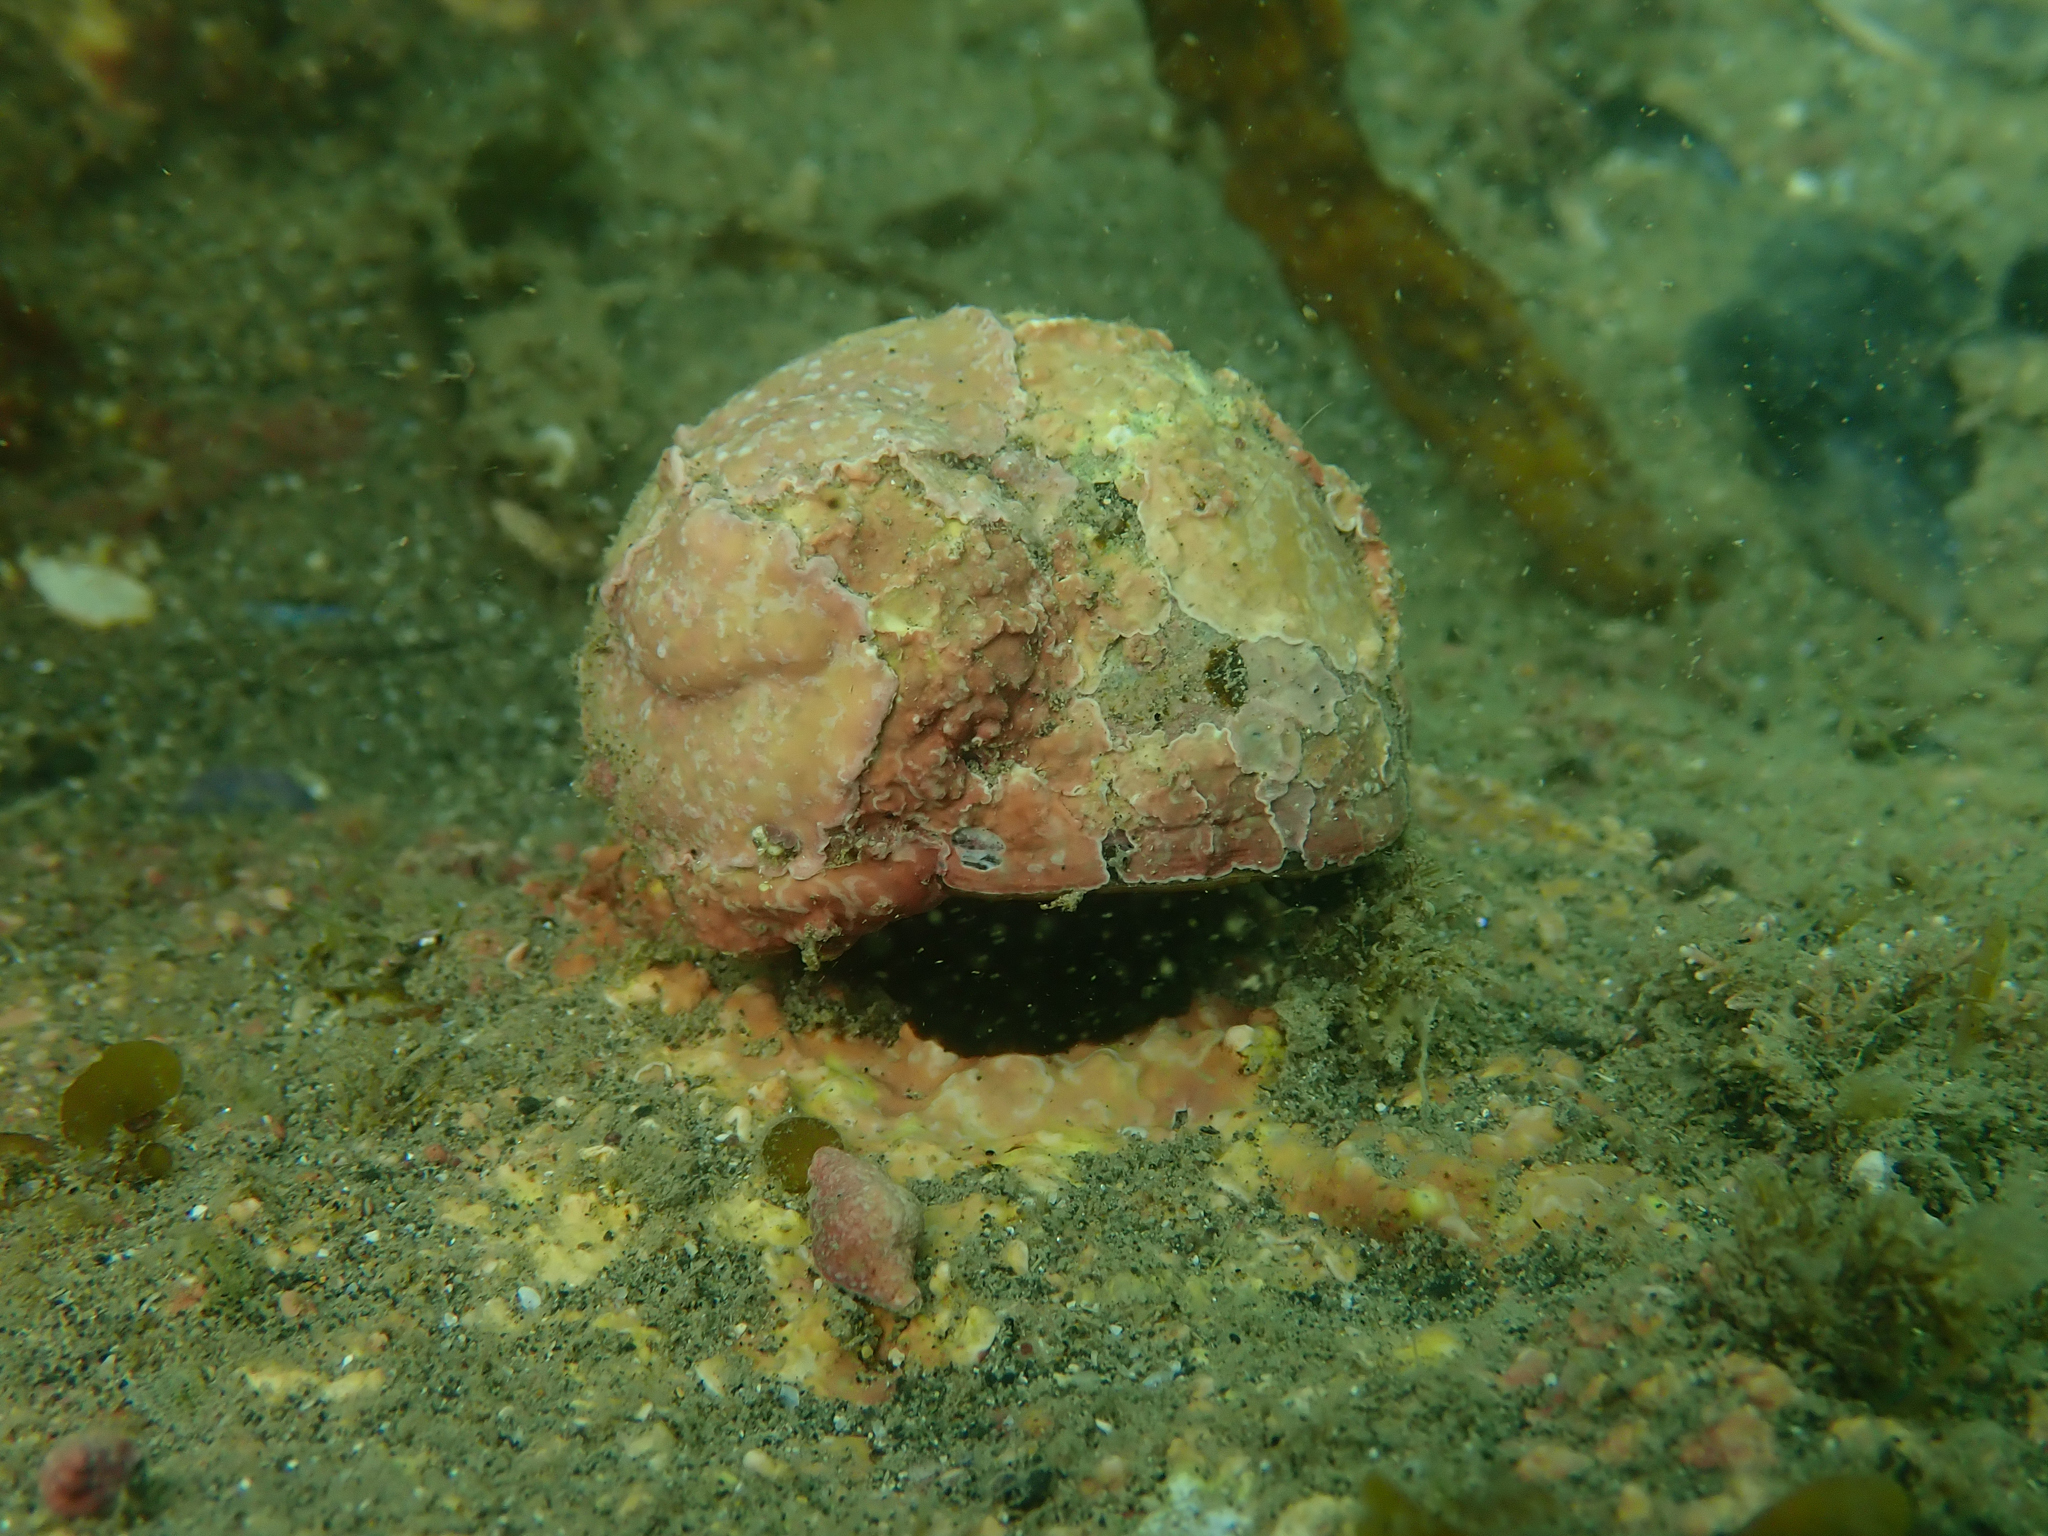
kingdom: Animalia
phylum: Mollusca
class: Gastropoda
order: Trochida
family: Turbinidae
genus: Lunella
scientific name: Lunella smaragda
